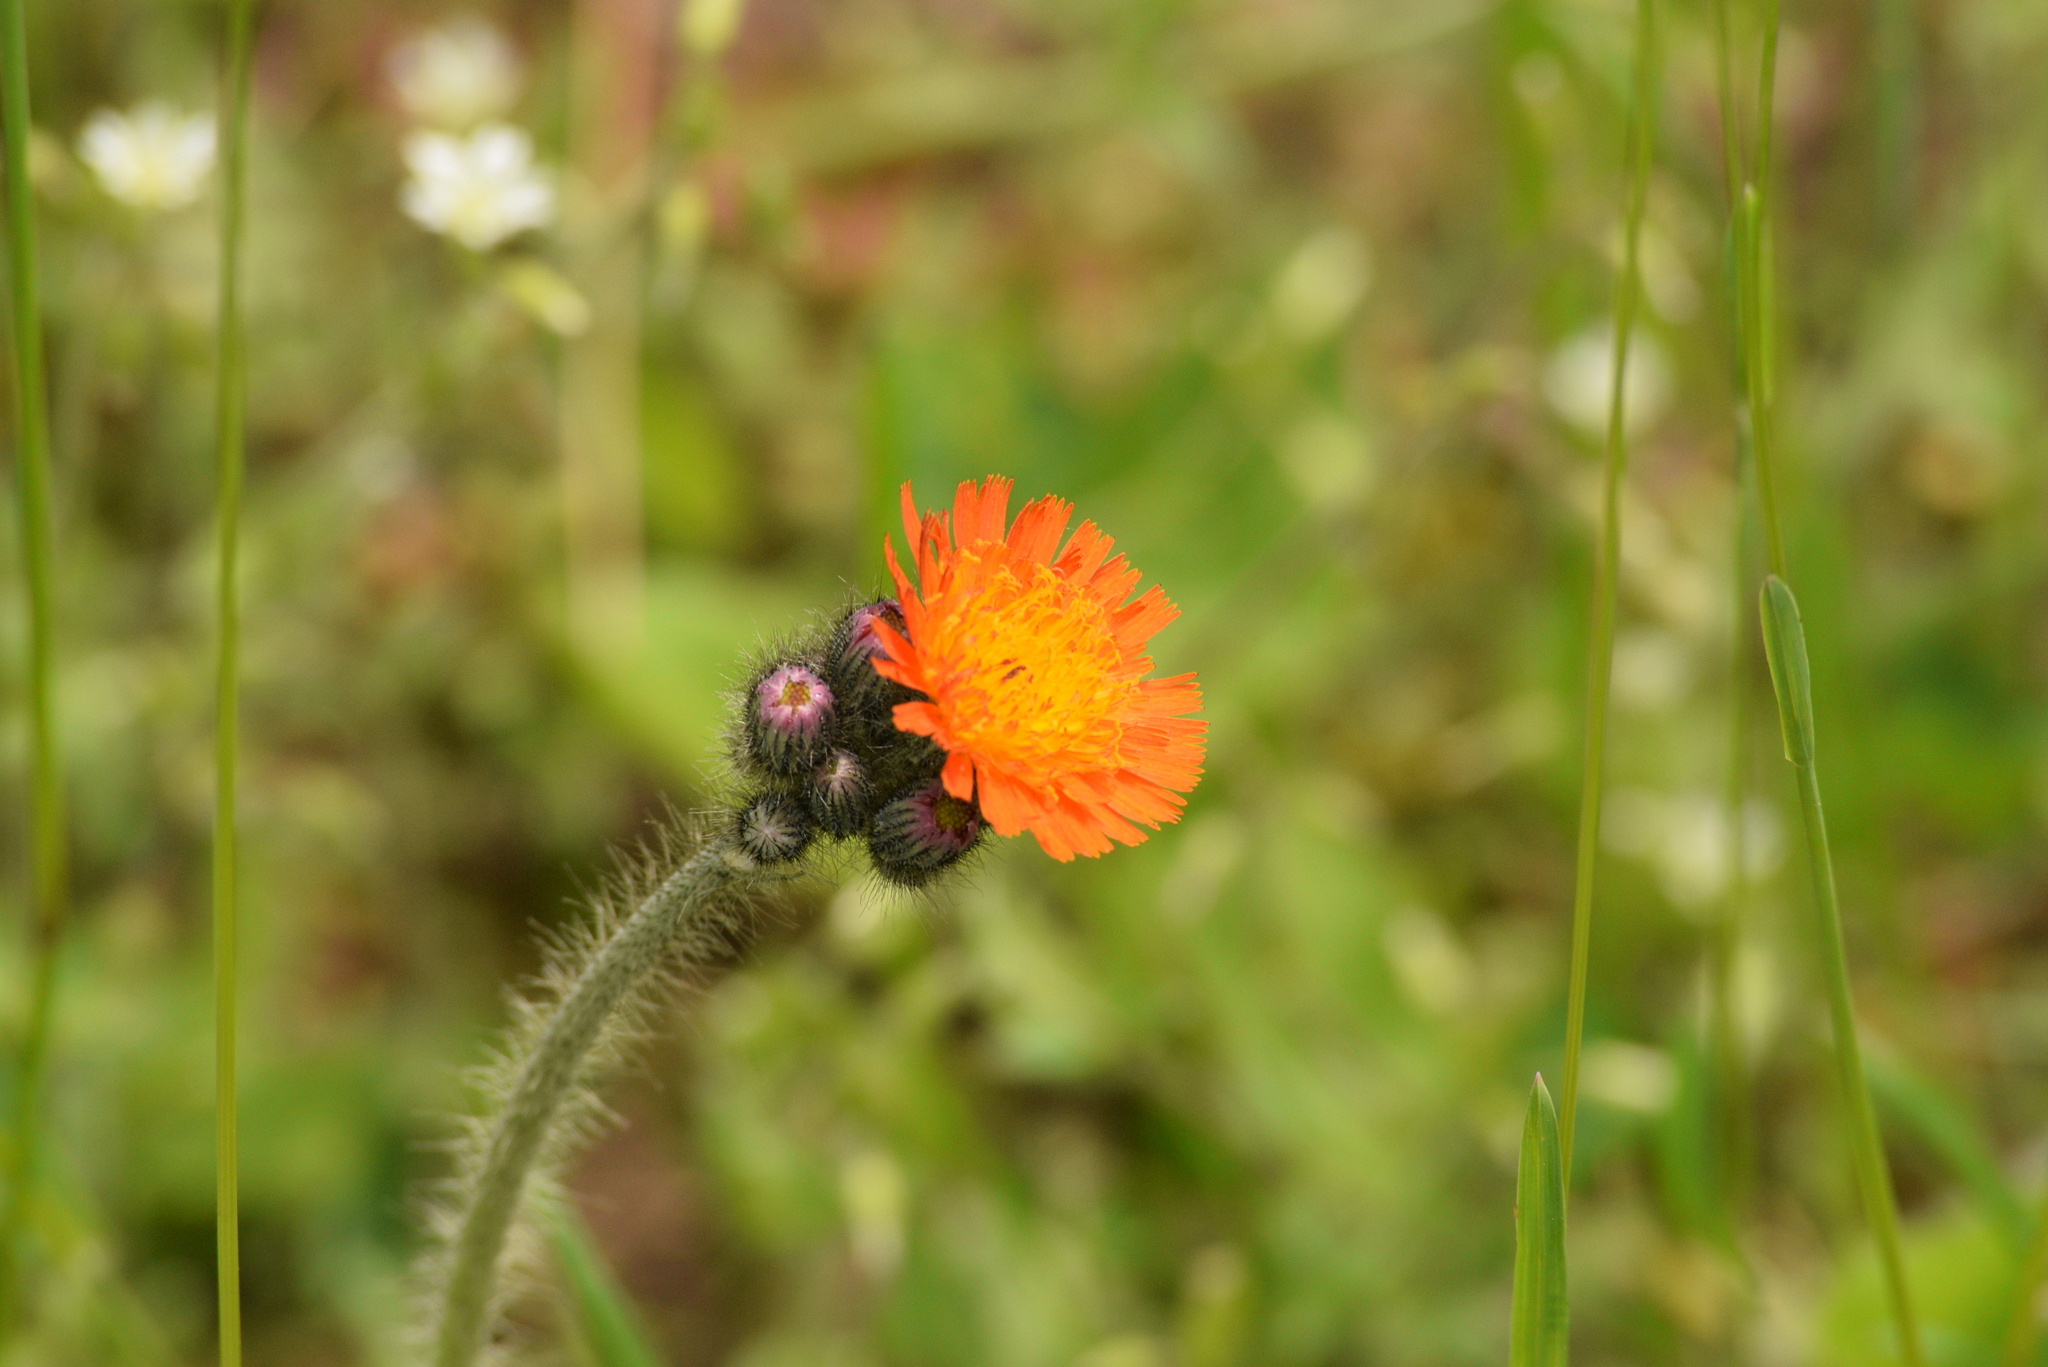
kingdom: Plantae
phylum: Tracheophyta
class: Magnoliopsida
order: Asterales
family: Asteraceae
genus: Pilosella
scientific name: Pilosella aurantiaca
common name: Fox-and-cubs
